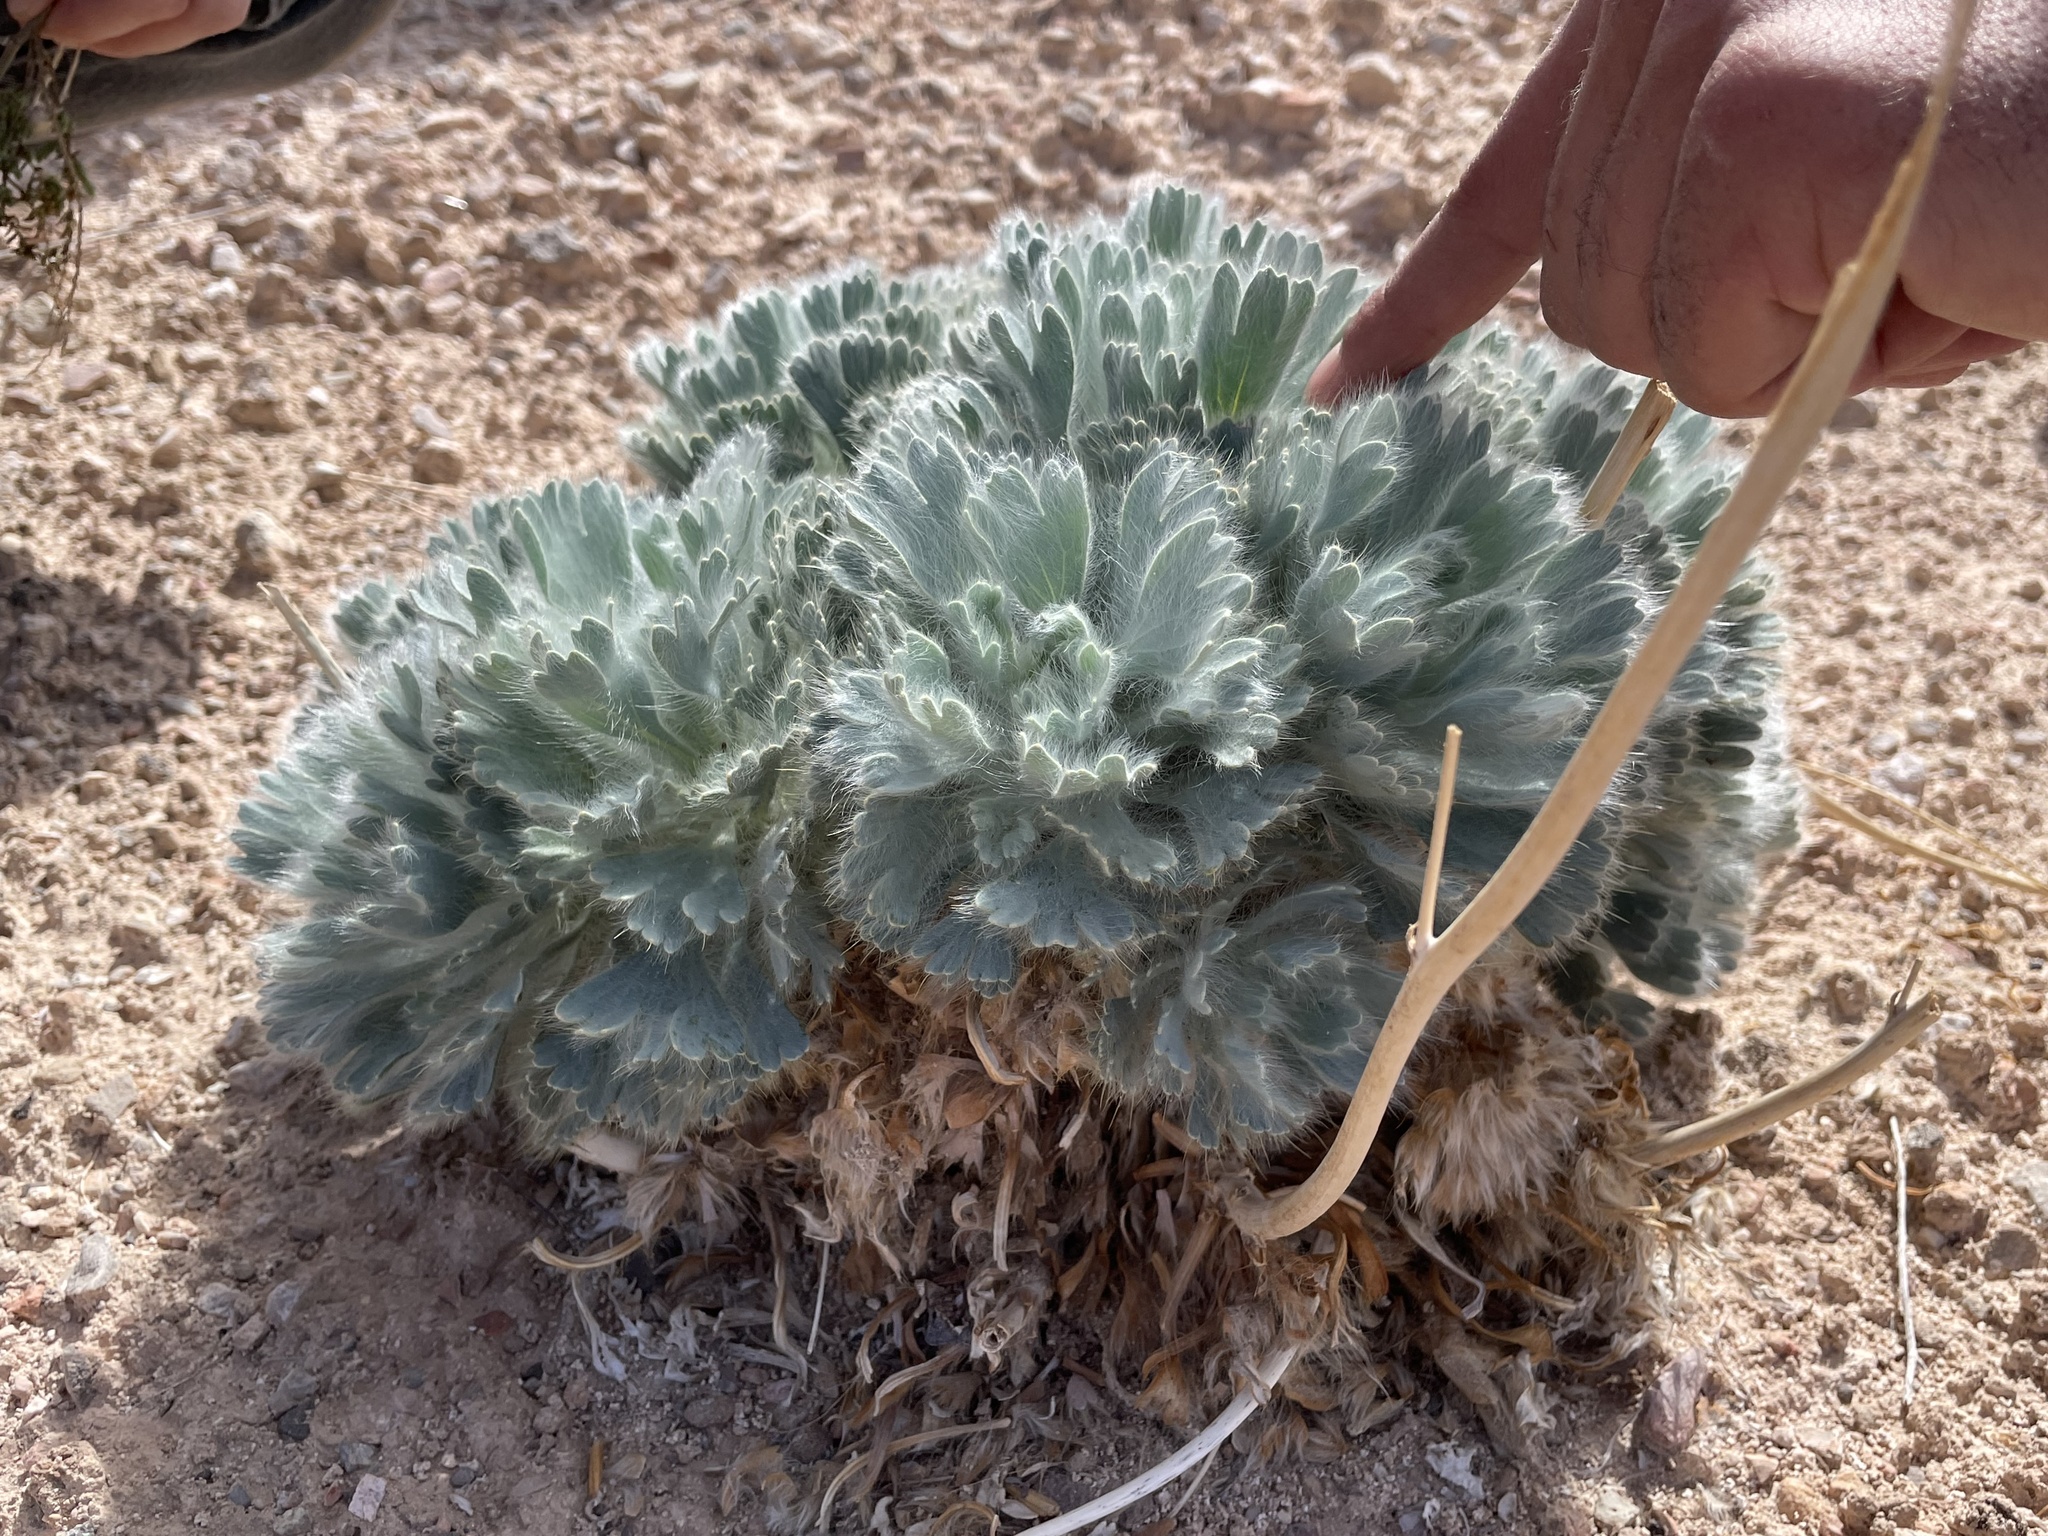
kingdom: Plantae
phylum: Tracheophyta
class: Magnoliopsida
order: Ranunculales
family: Papaveraceae
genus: Arctomecon
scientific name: Arctomecon californicum
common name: Golden bearclaw-poppy
